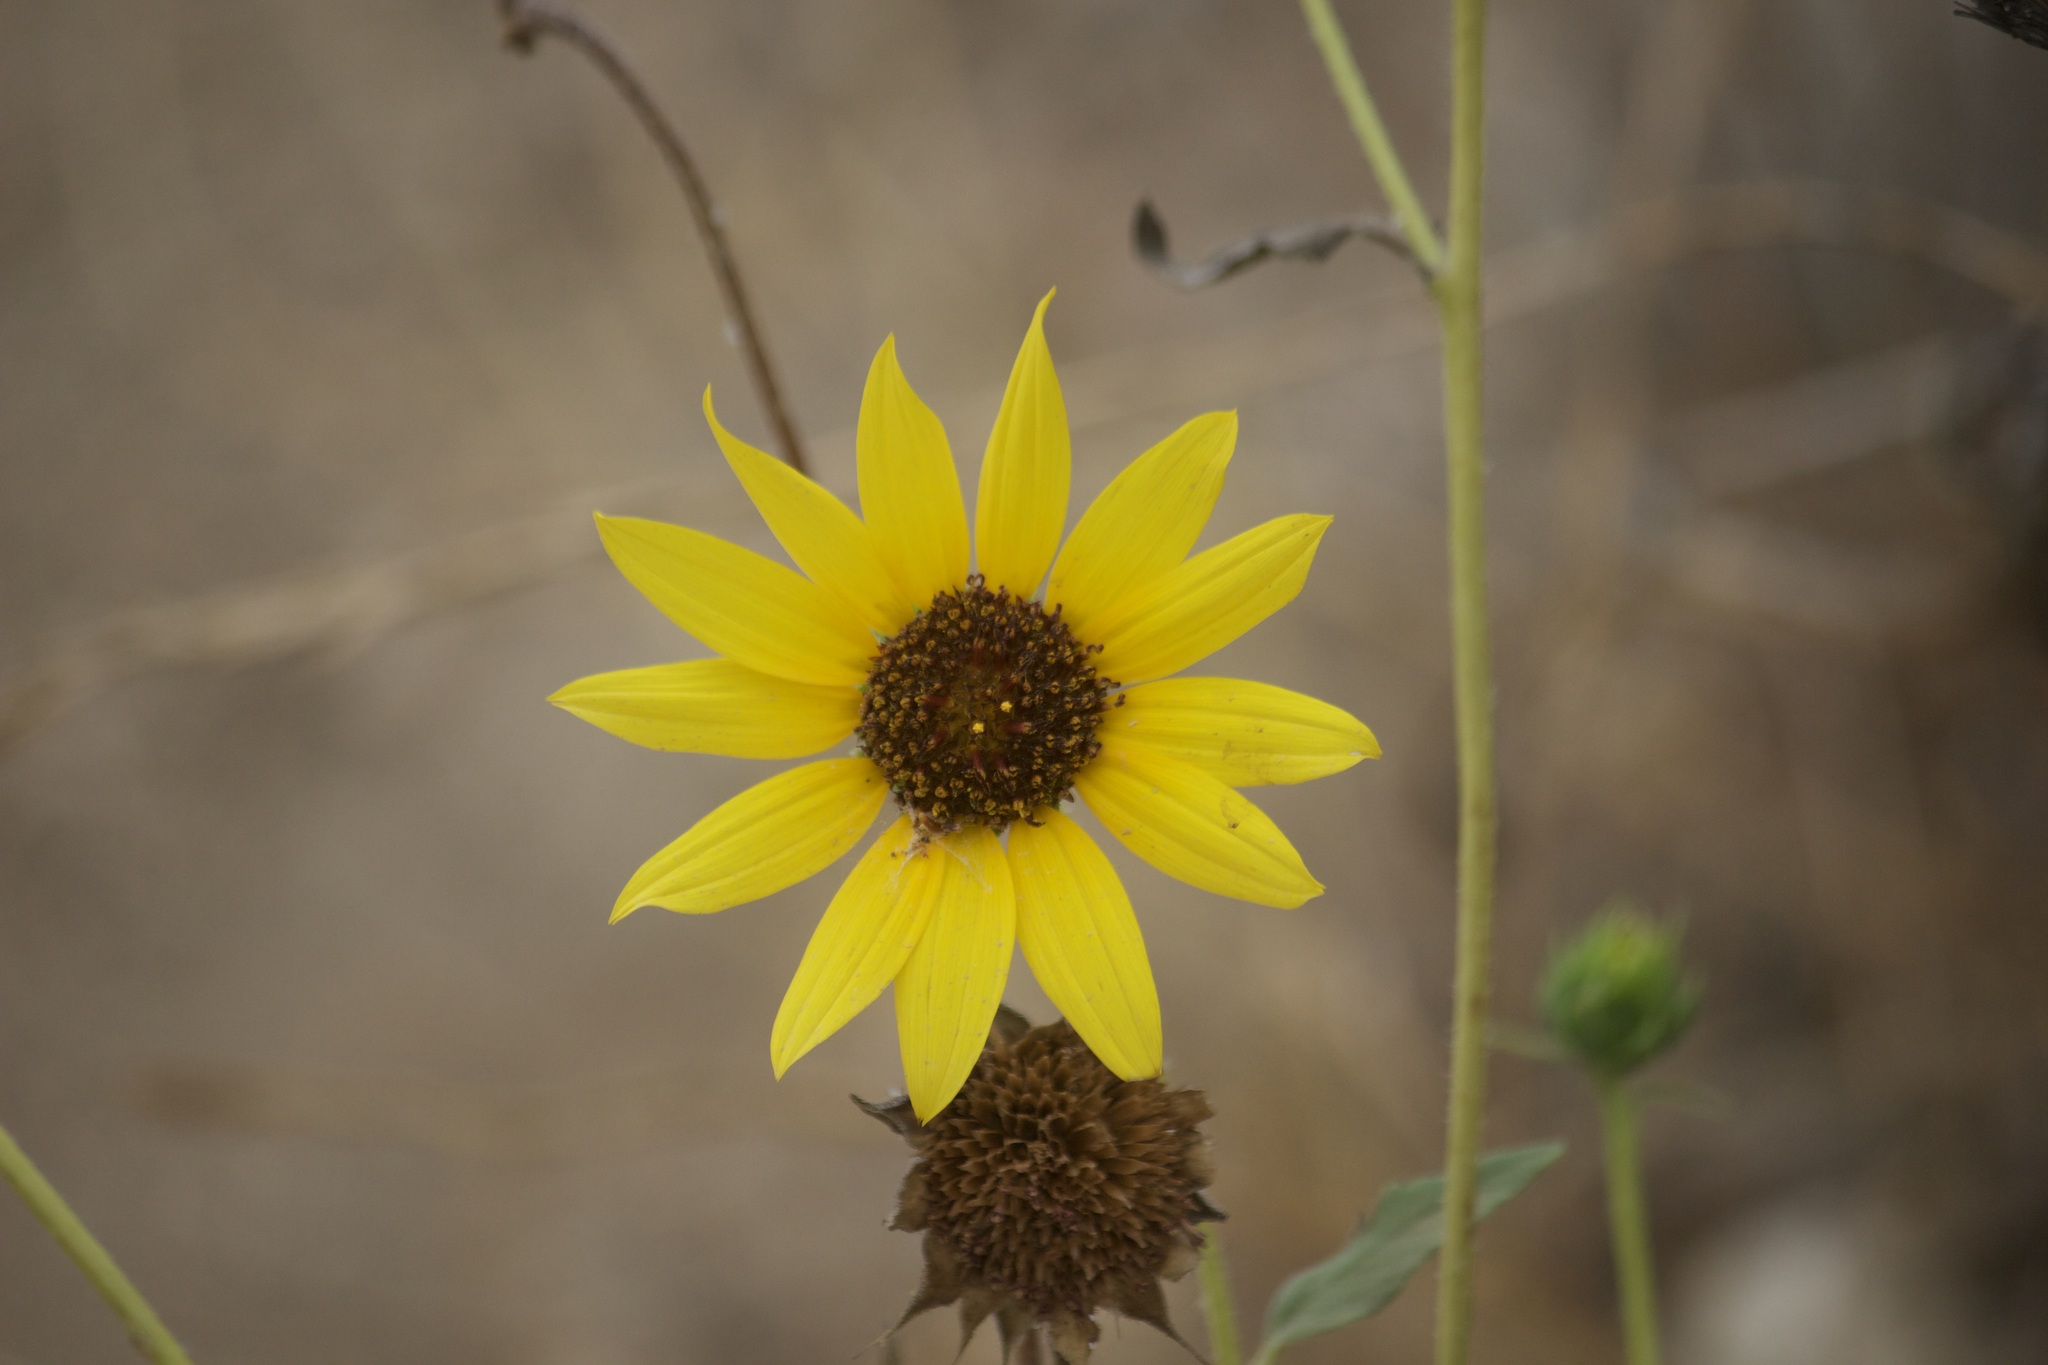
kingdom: Plantae
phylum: Tracheophyta
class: Magnoliopsida
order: Asterales
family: Asteraceae
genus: Helianthus
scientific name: Helianthus annuus
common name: Sunflower
